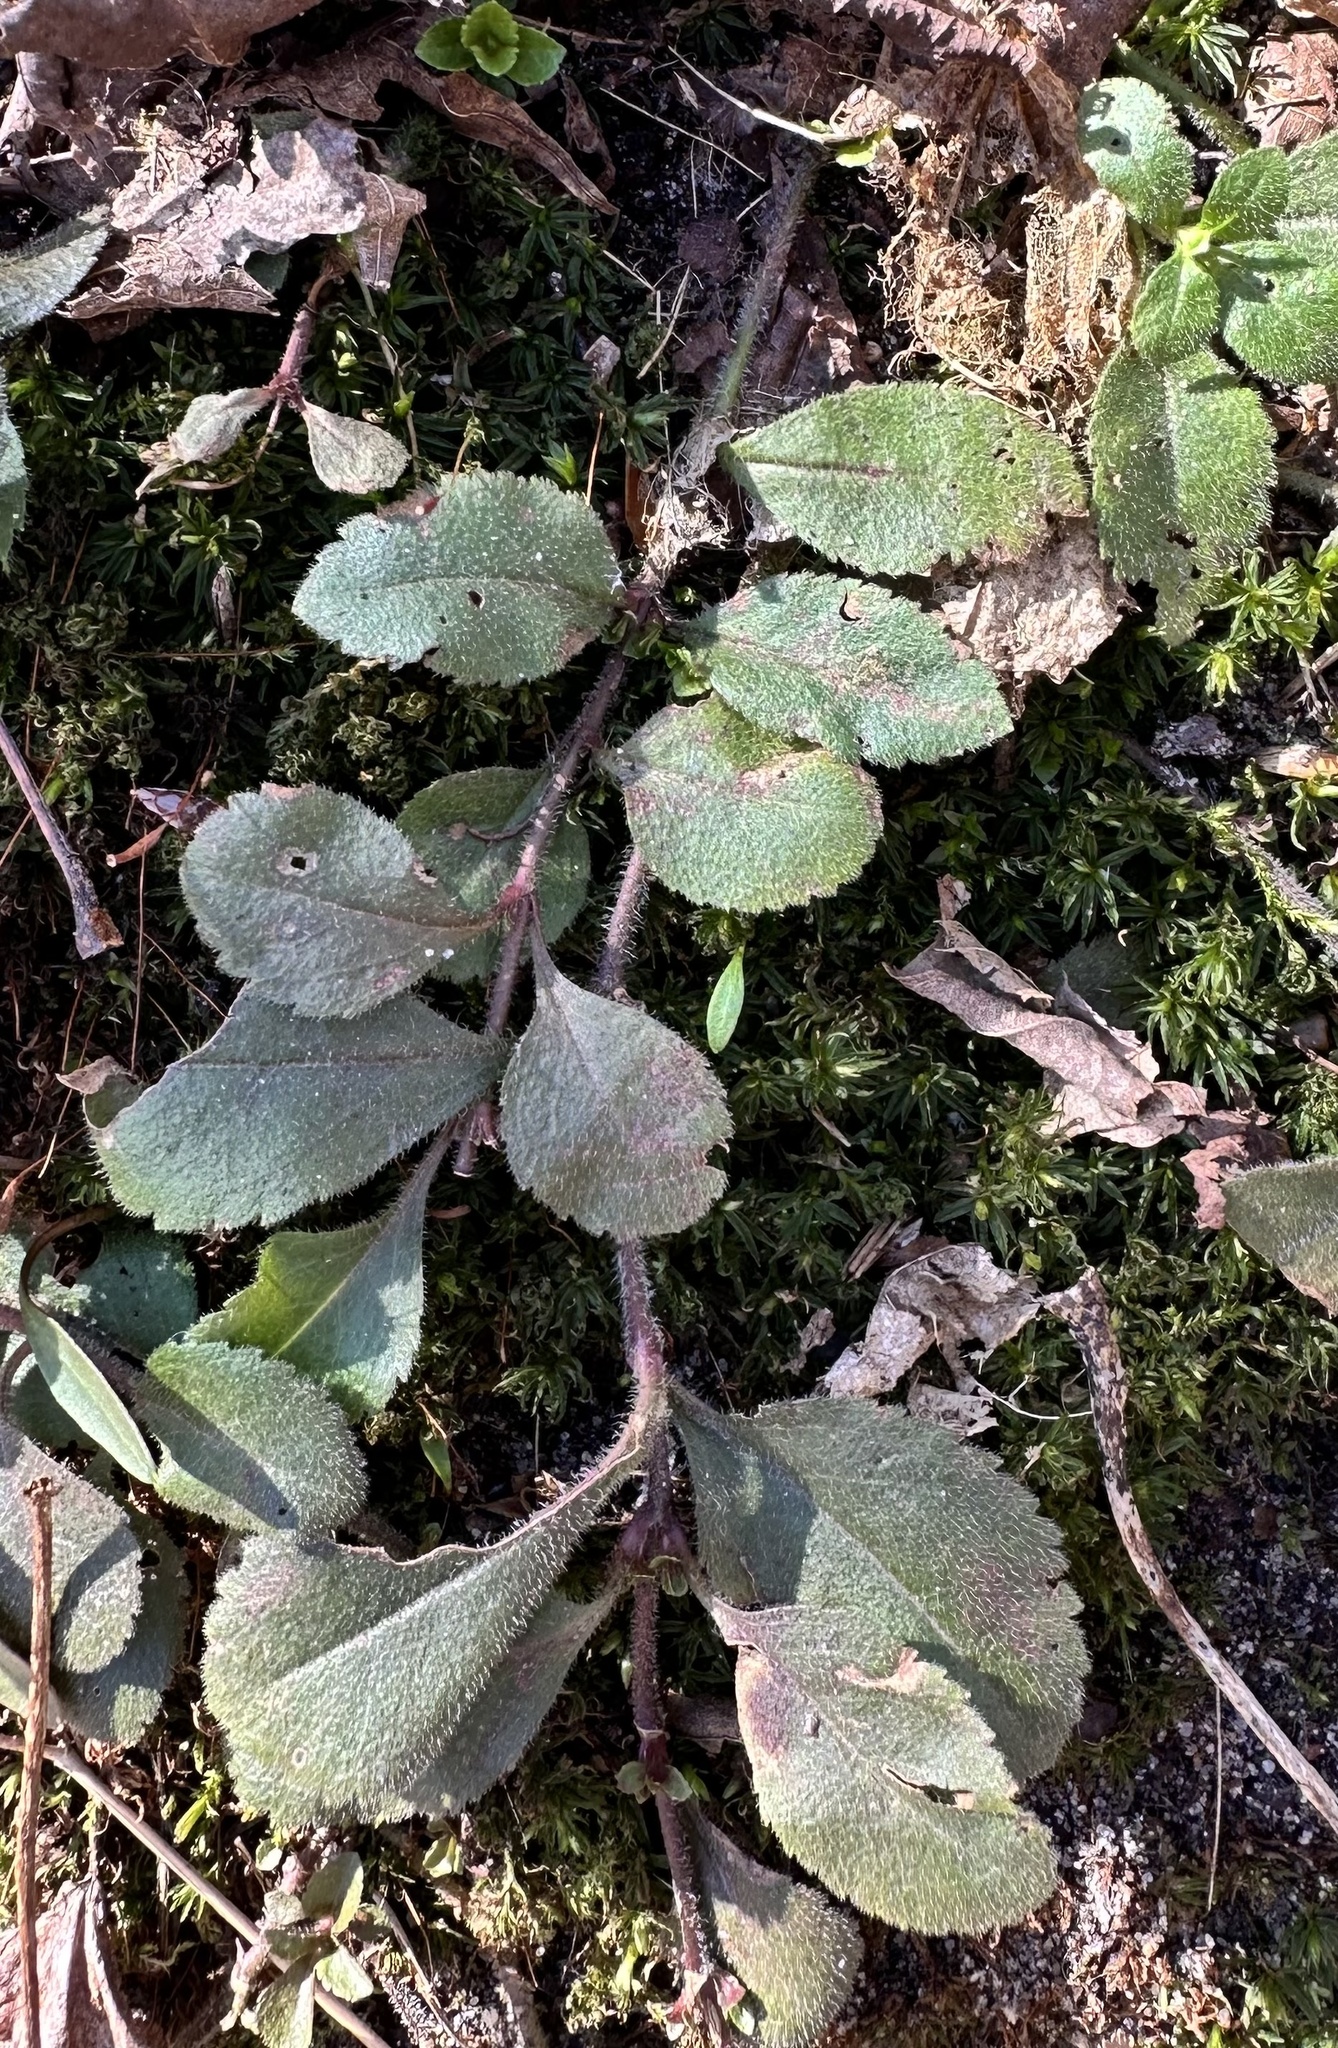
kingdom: Plantae
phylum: Tracheophyta
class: Magnoliopsida
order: Lamiales
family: Plantaginaceae
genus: Veronica
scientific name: Veronica officinalis
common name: Common speedwell
